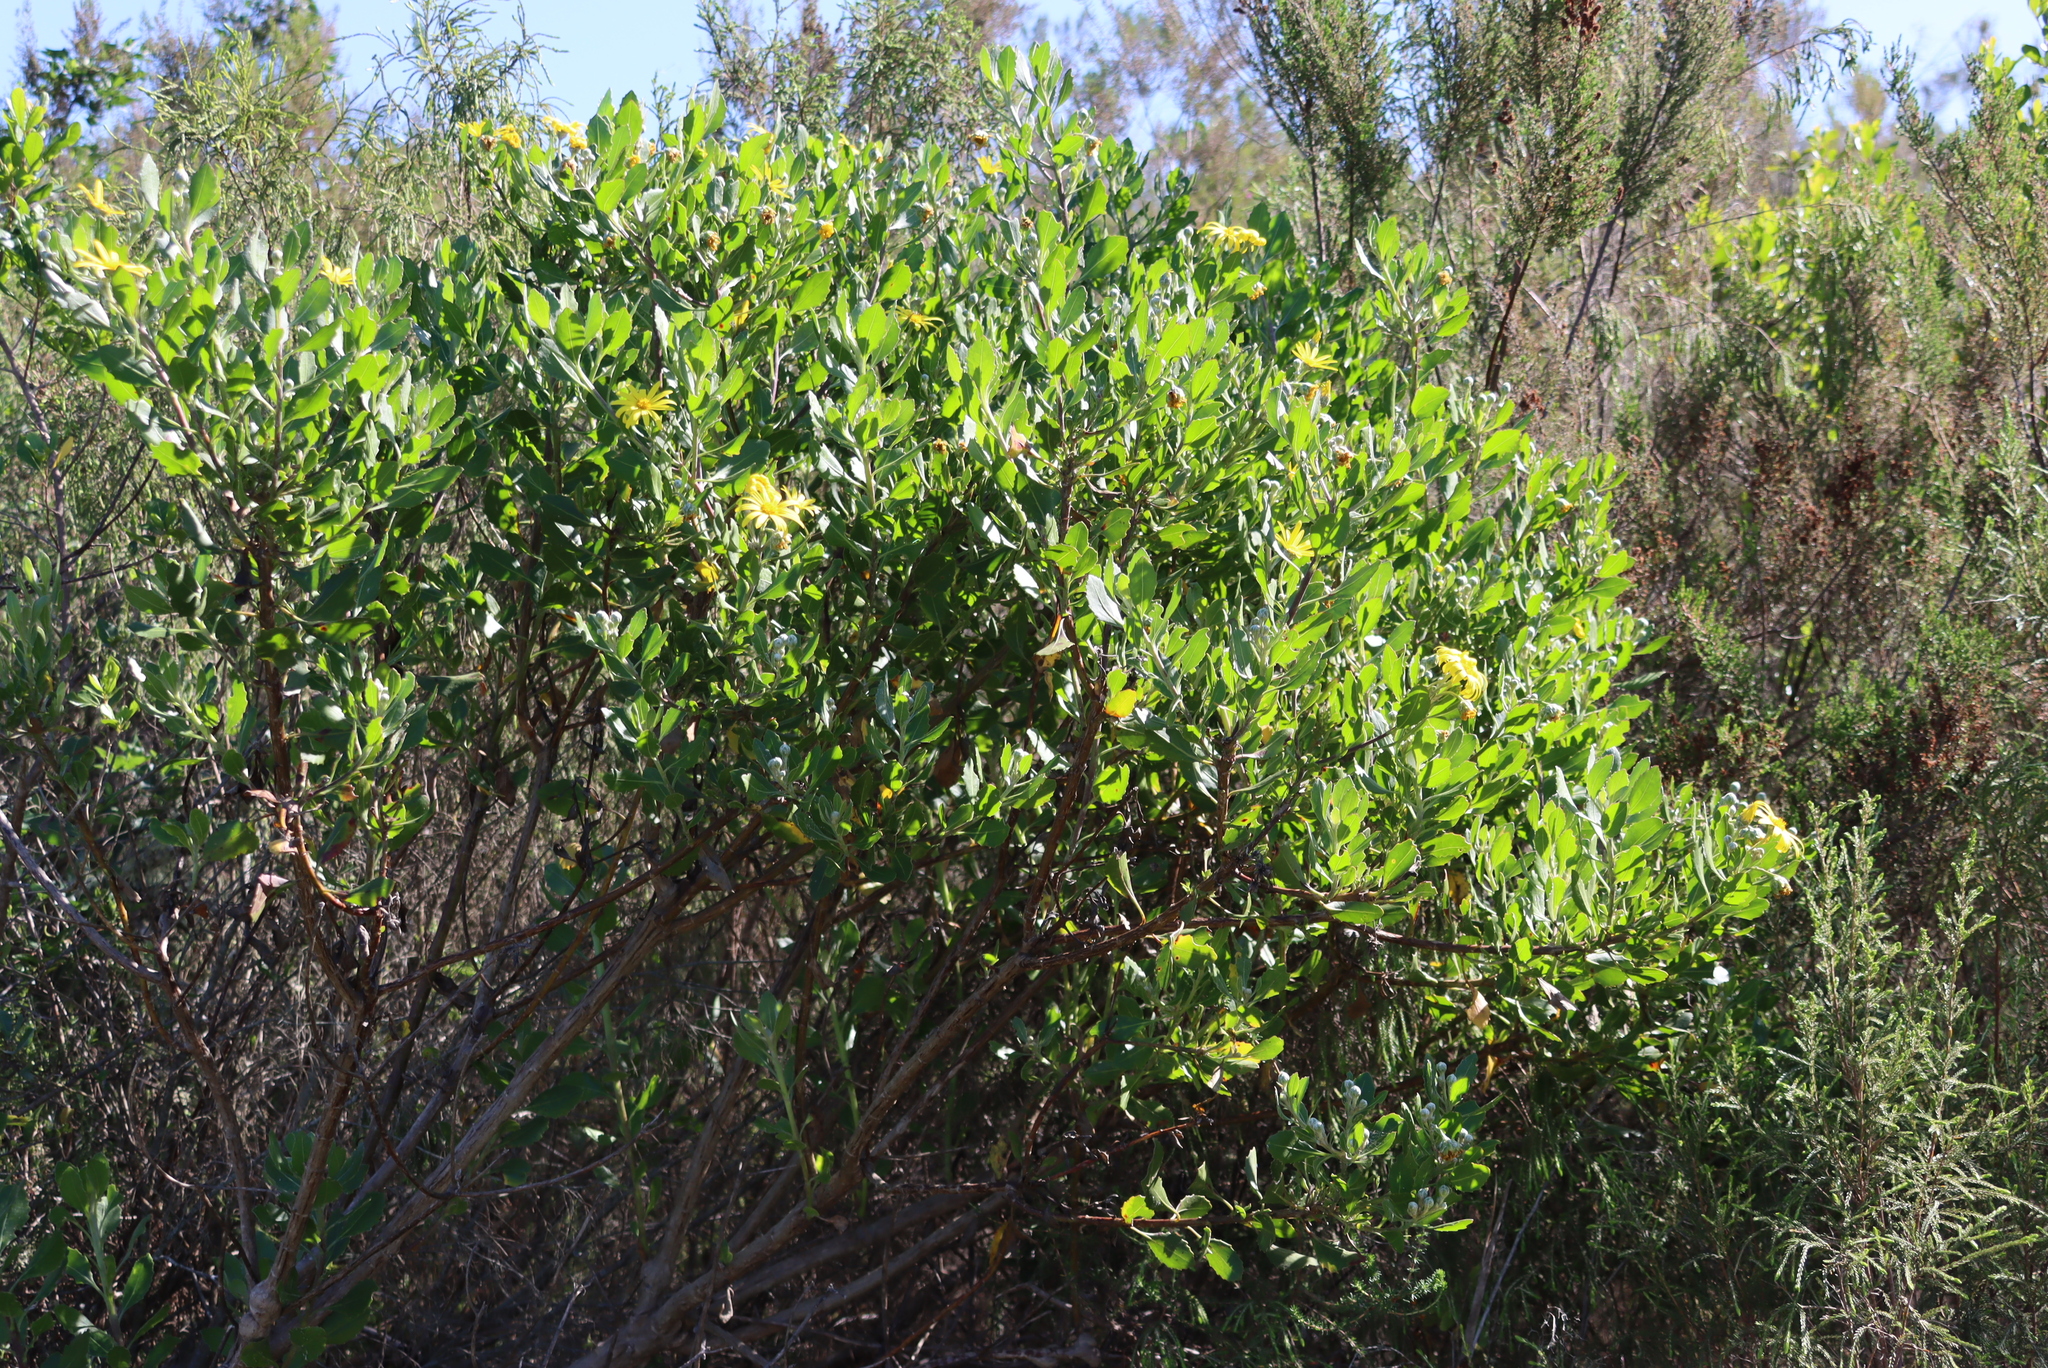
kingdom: Plantae
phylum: Tracheophyta
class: Magnoliopsida
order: Asterales
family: Asteraceae
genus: Osteospermum
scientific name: Osteospermum moniliferum
